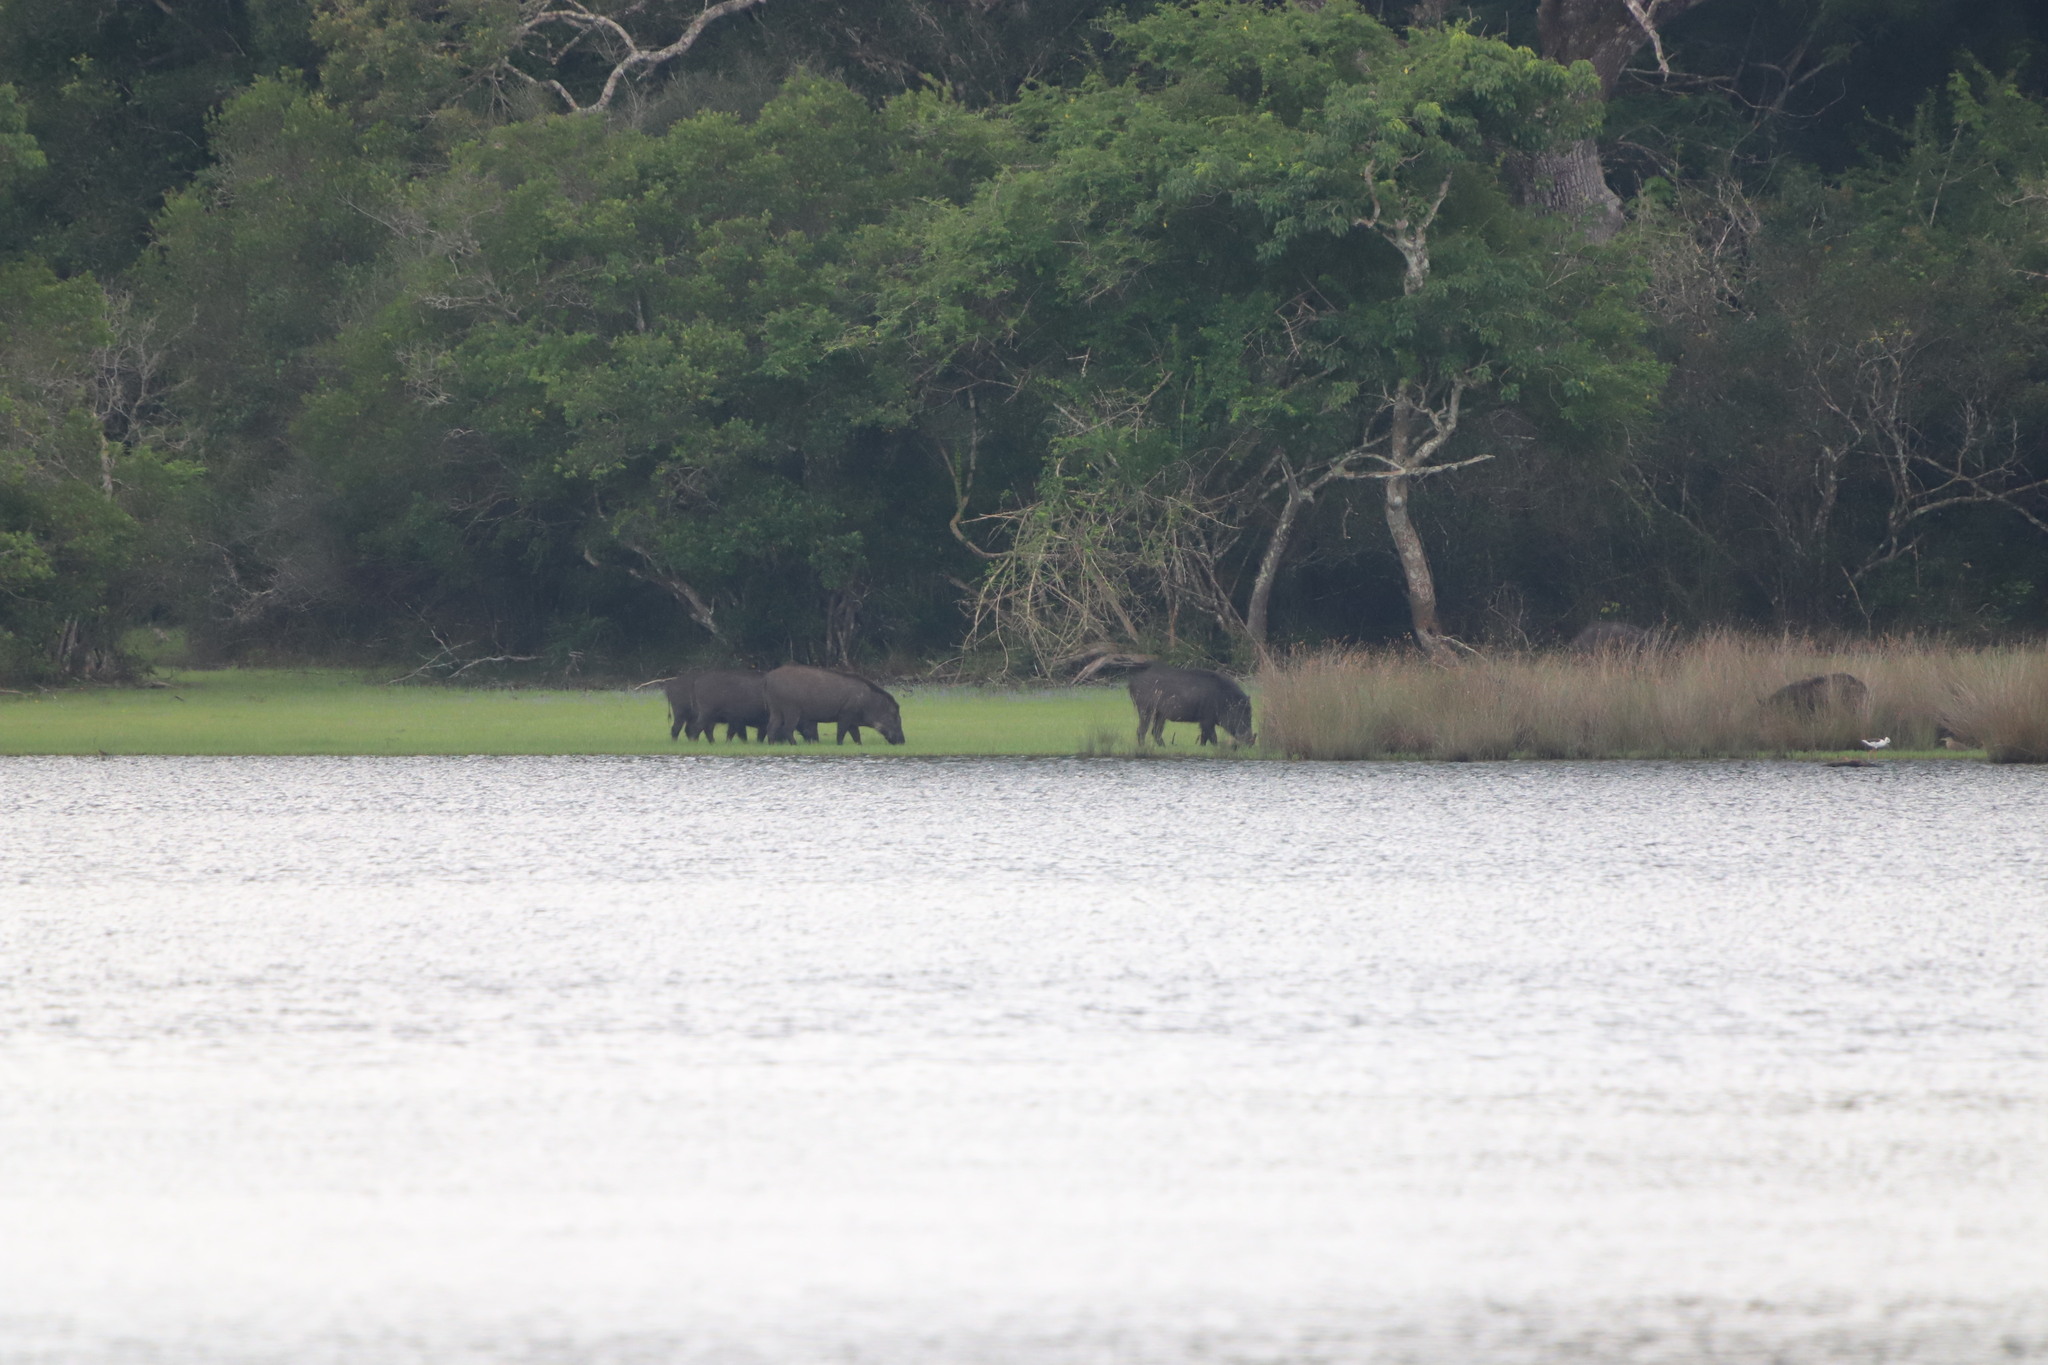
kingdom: Animalia
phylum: Chordata
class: Mammalia
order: Artiodactyla
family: Suidae
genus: Sus
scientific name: Sus scrofa
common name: Wild boar
